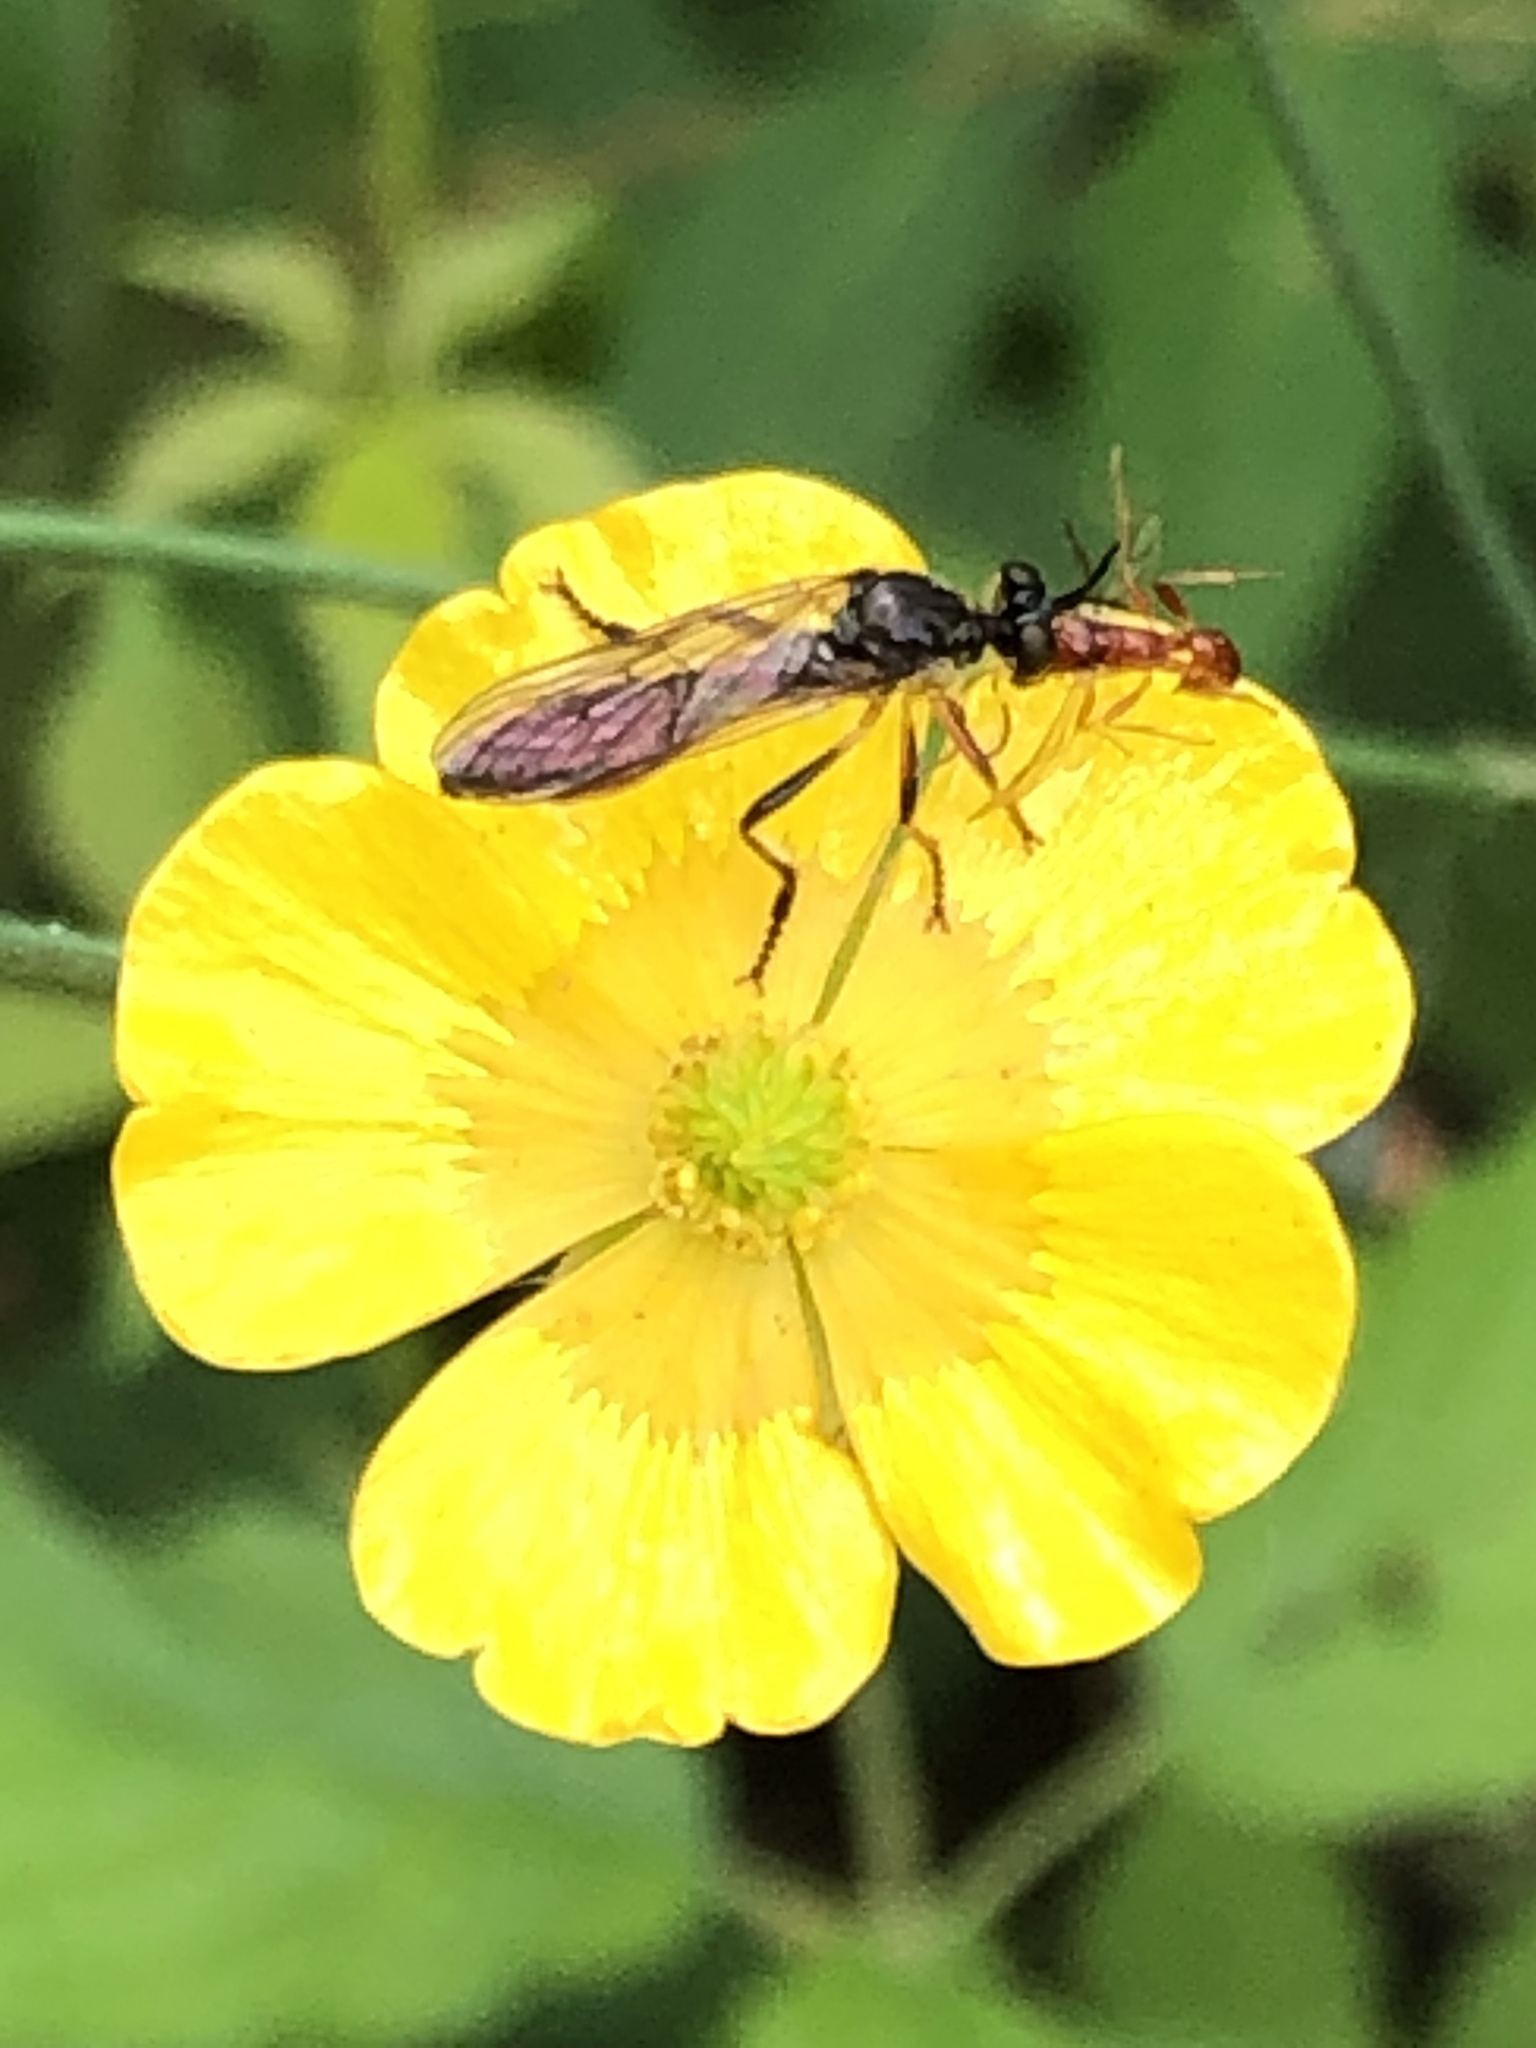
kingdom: Animalia
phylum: Arthropoda
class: Insecta
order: Diptera
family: Asilidae
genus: Dioctria
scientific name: Dioctria hyalipennis
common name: Stripe-legged robberfly
